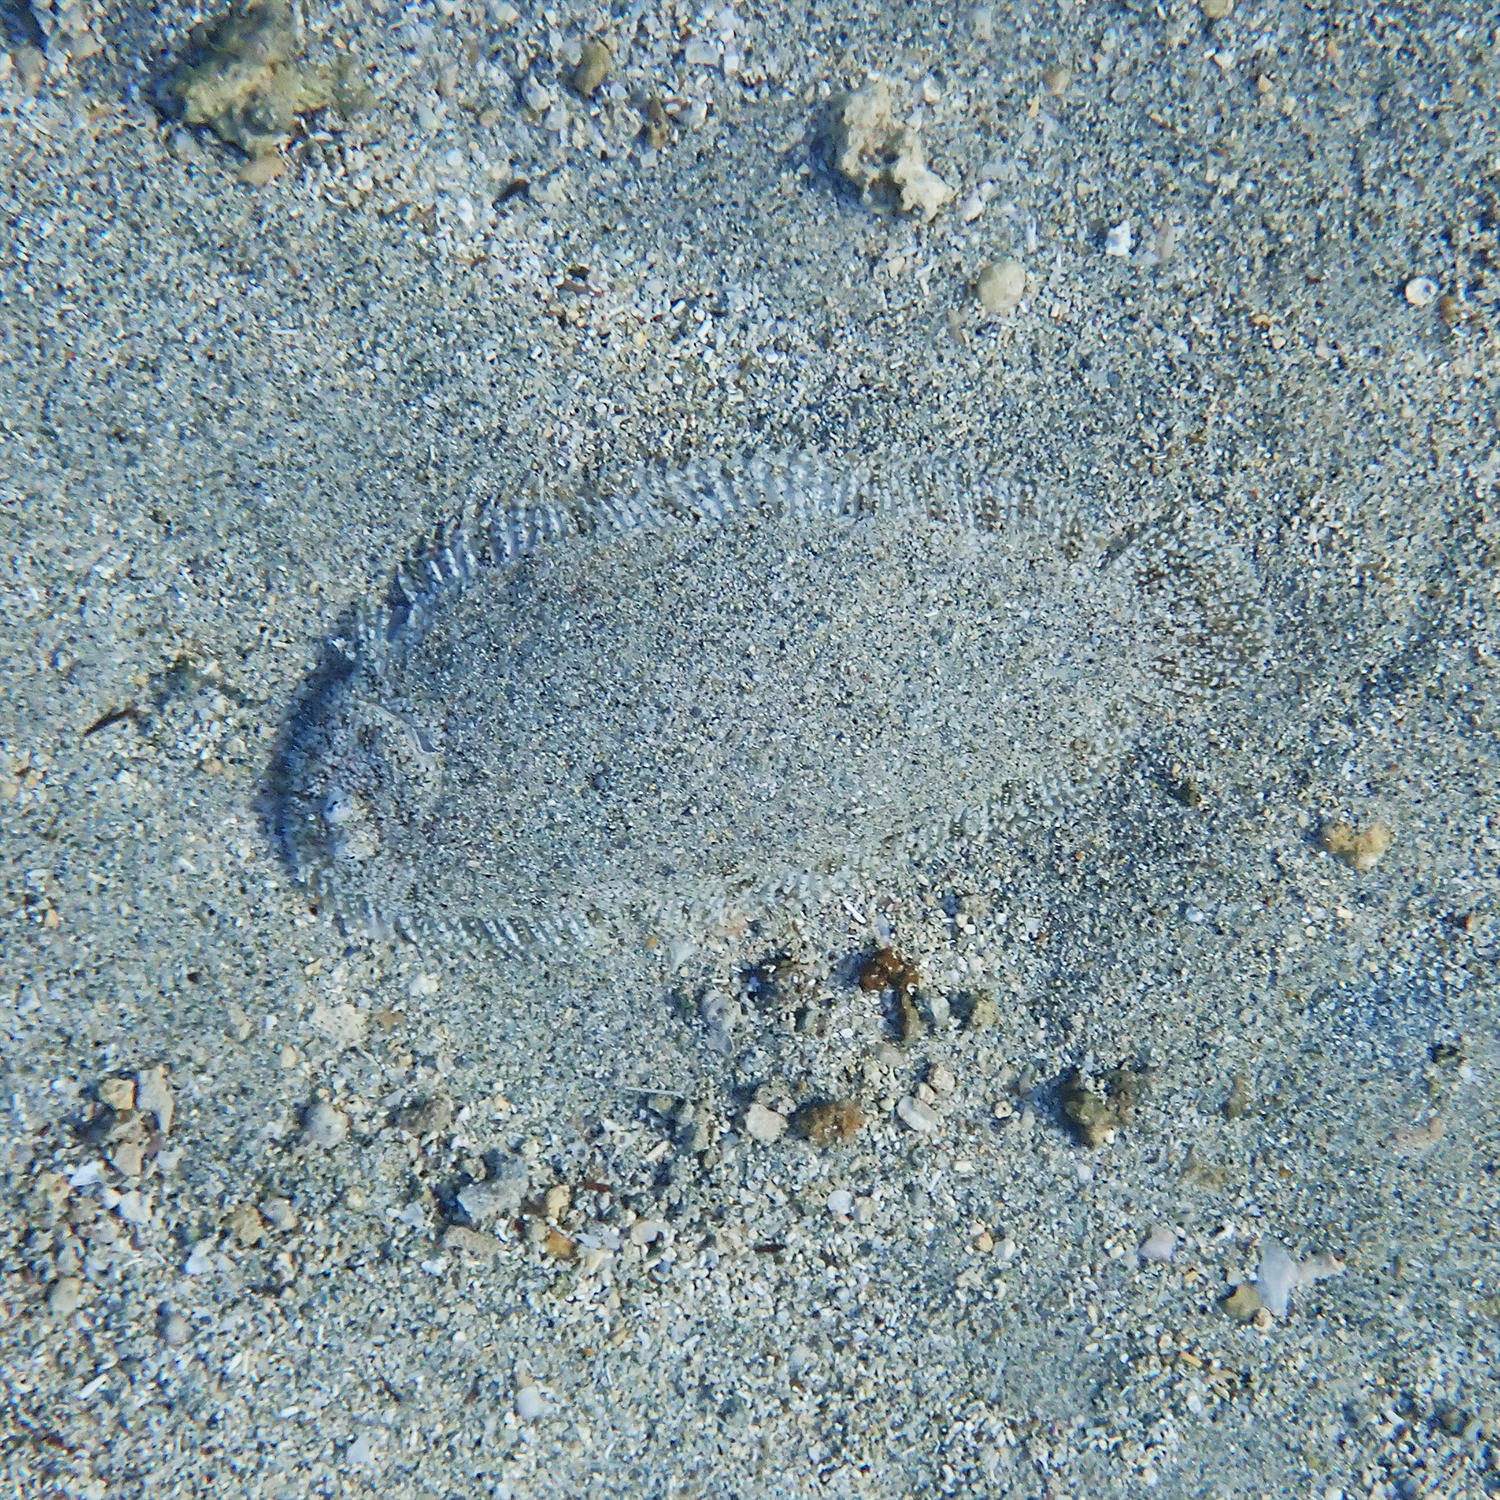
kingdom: Animalia
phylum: Chordata
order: Pleuronectiformes
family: Soleidae
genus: Aseraggodes
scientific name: Aseraggodes bahamondei
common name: Bahamonde's sole
